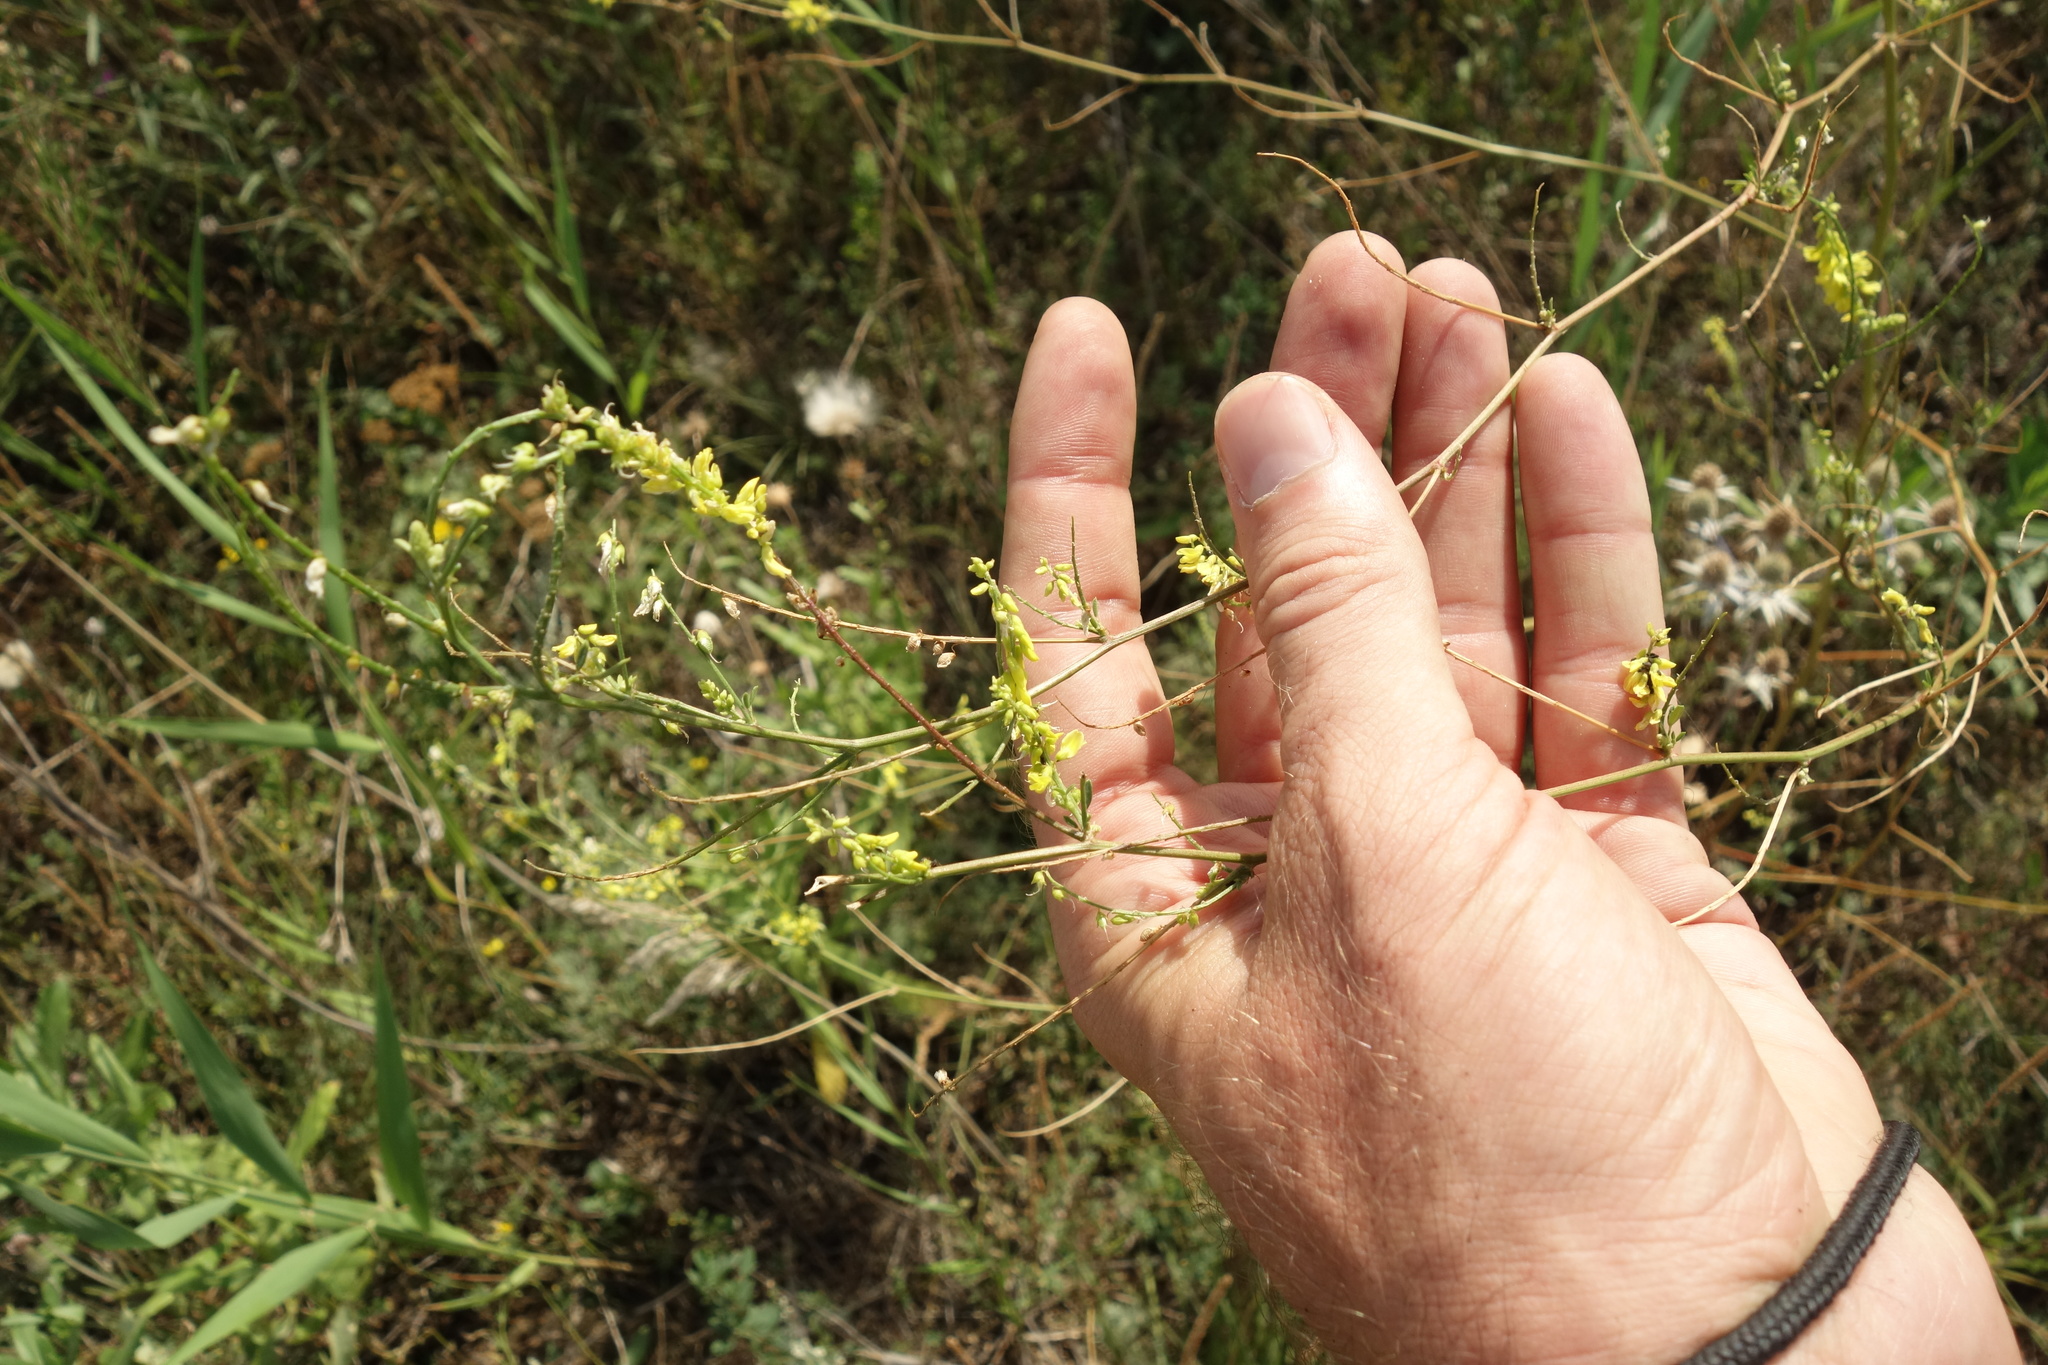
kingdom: Plantae
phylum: Tracheophyta
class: Magnoliopsida
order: Fabales
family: Fabaceae
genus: Melilotus
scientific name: Melilotus officinalis
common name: Sweetclover
